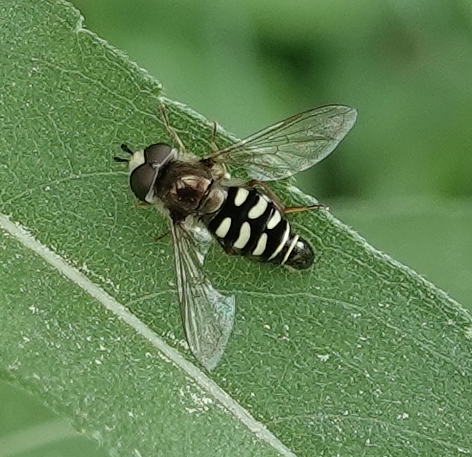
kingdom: Animalia
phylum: Arthropoda
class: Insecta
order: Diptera
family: Syrphidae
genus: Eupeodes
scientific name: Eupeodes volucris
